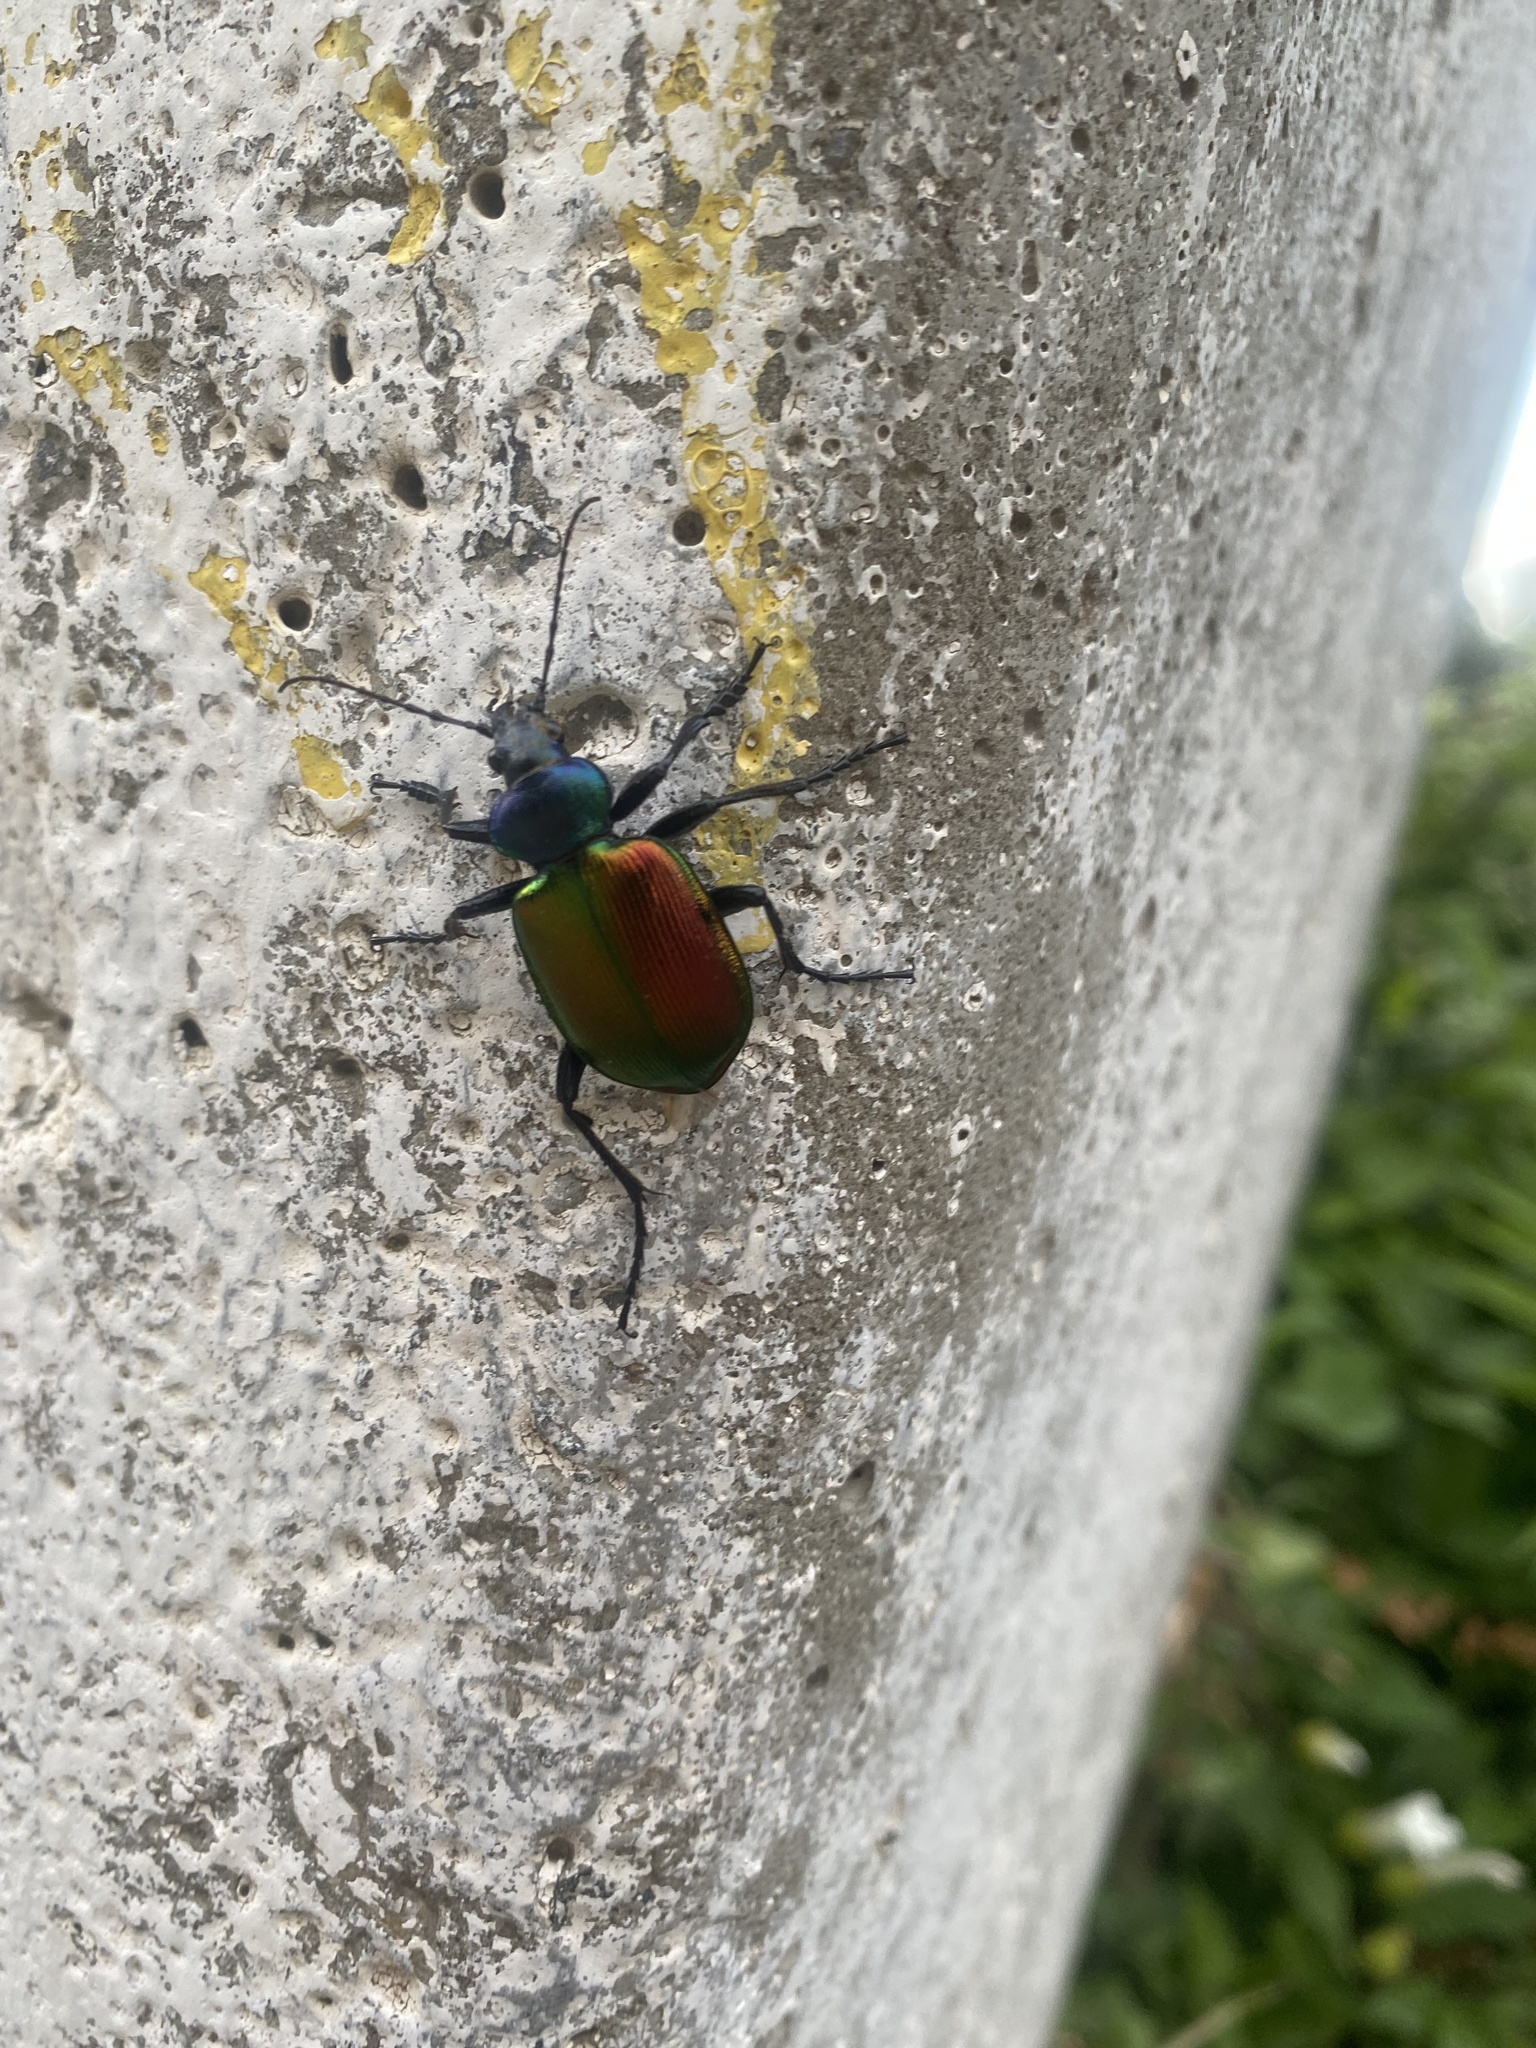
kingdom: Animalia
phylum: Arthropoda
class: Insecta
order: Coleoptera
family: Carabidae
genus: Calosoma
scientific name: Calosoma sycophanta
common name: Forest caterpillar hunter
